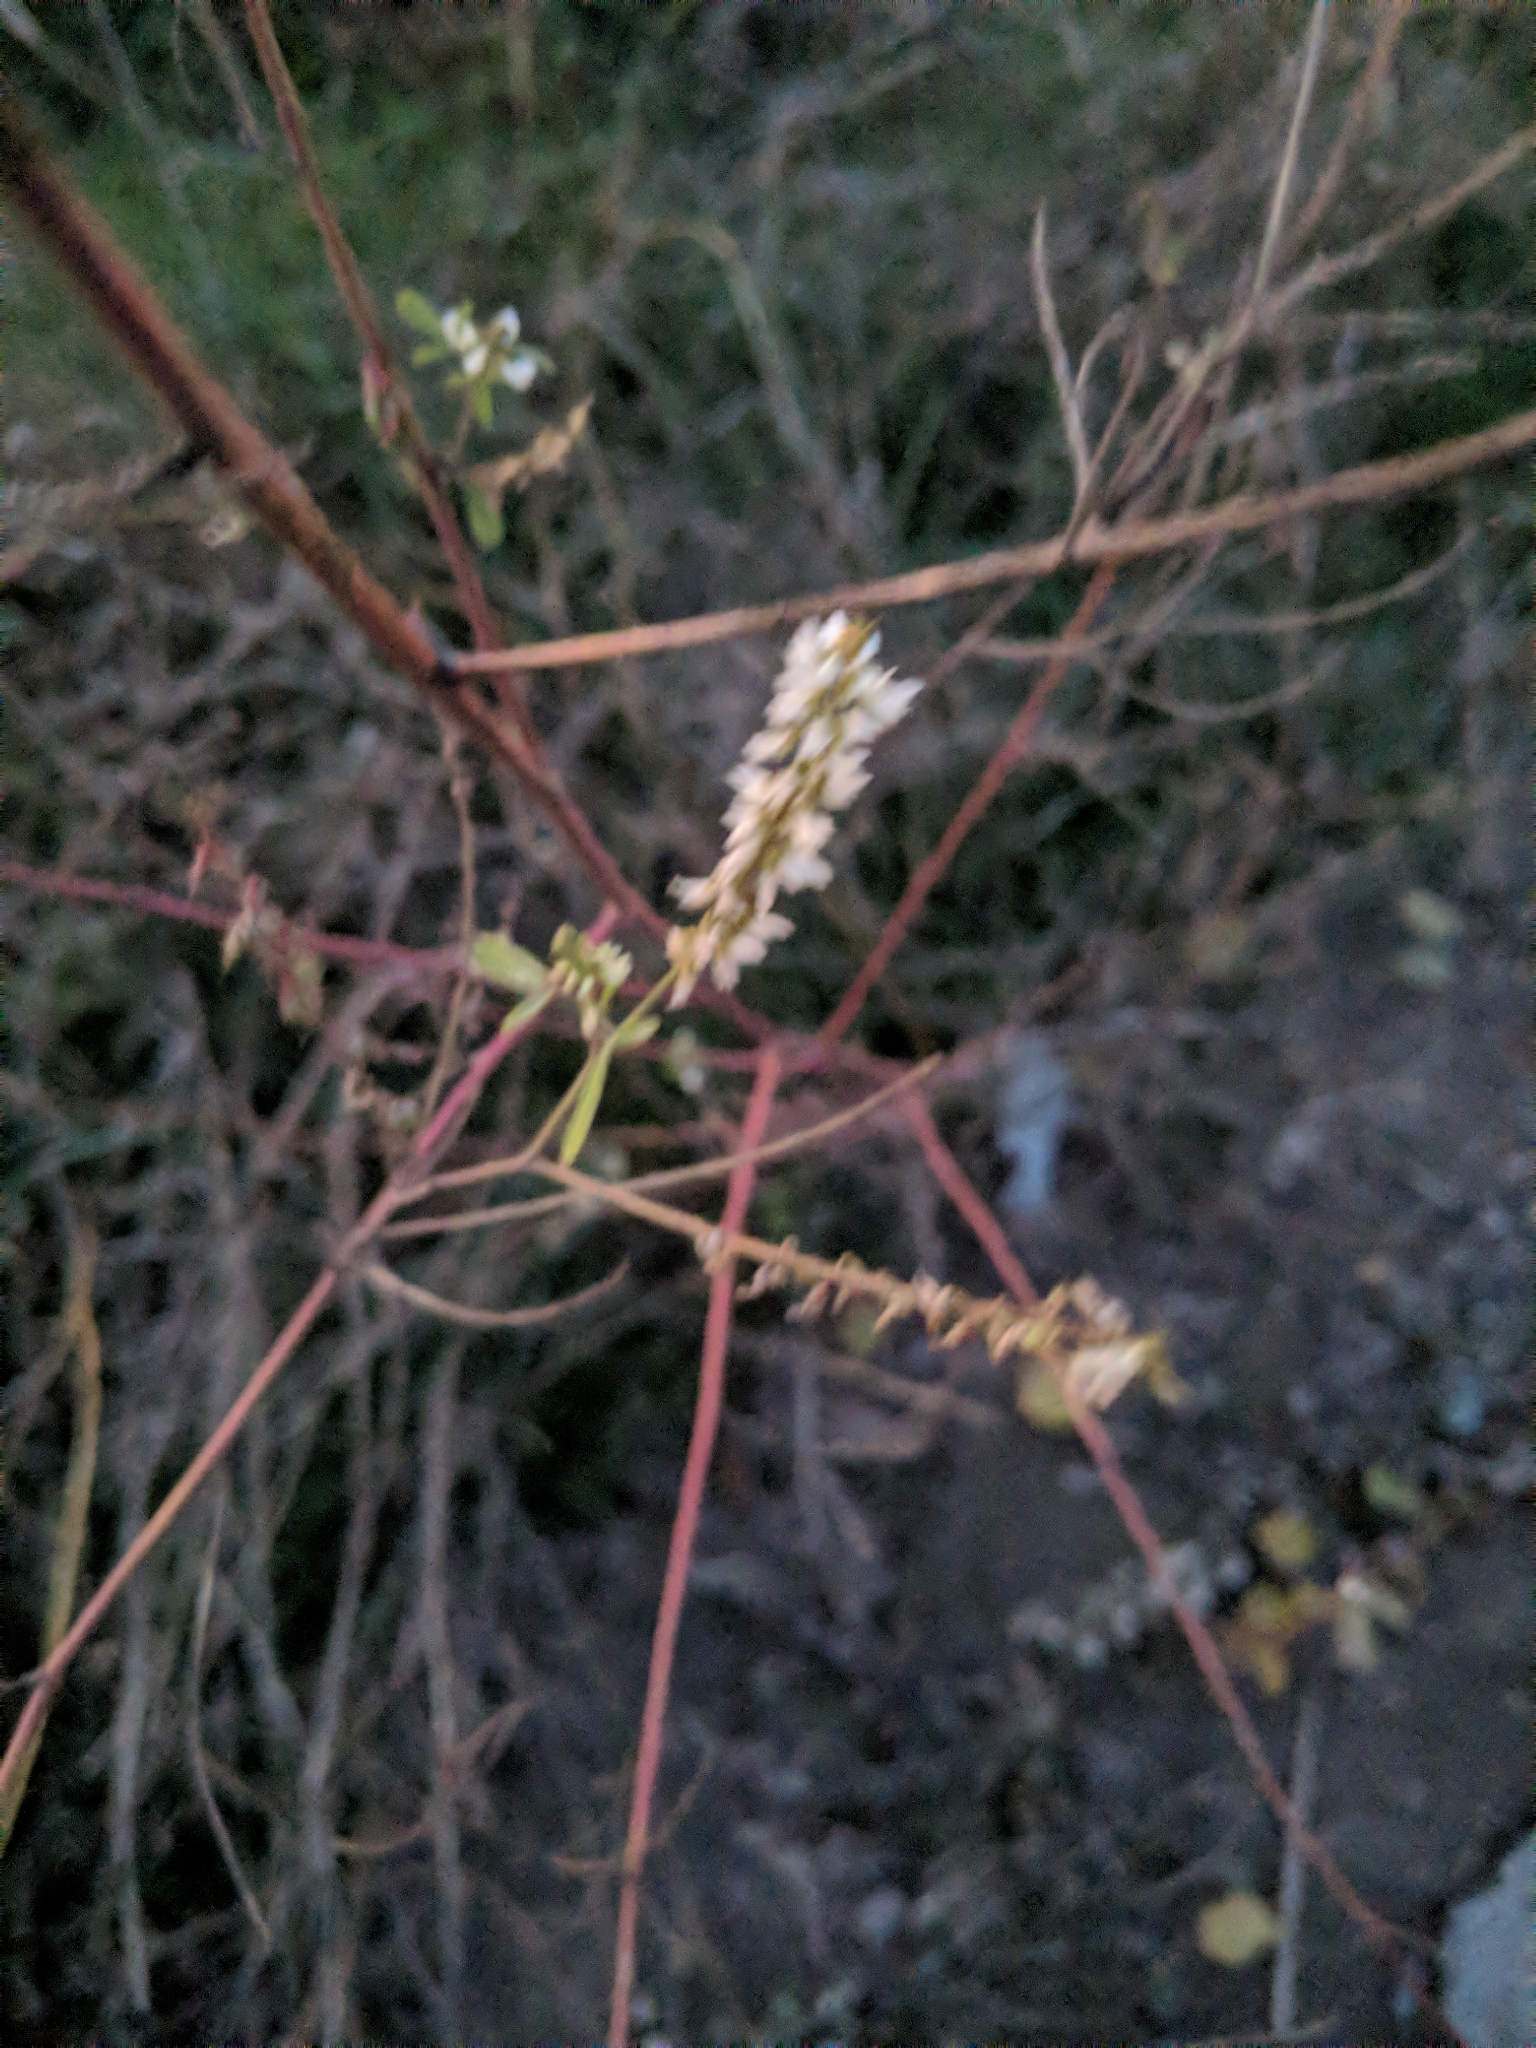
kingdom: Plantae
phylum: Tracheophyta
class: Magnoliopsida
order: Fabales
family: Fabaceae
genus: Melilotus
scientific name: Melilotus albus
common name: White melilot
